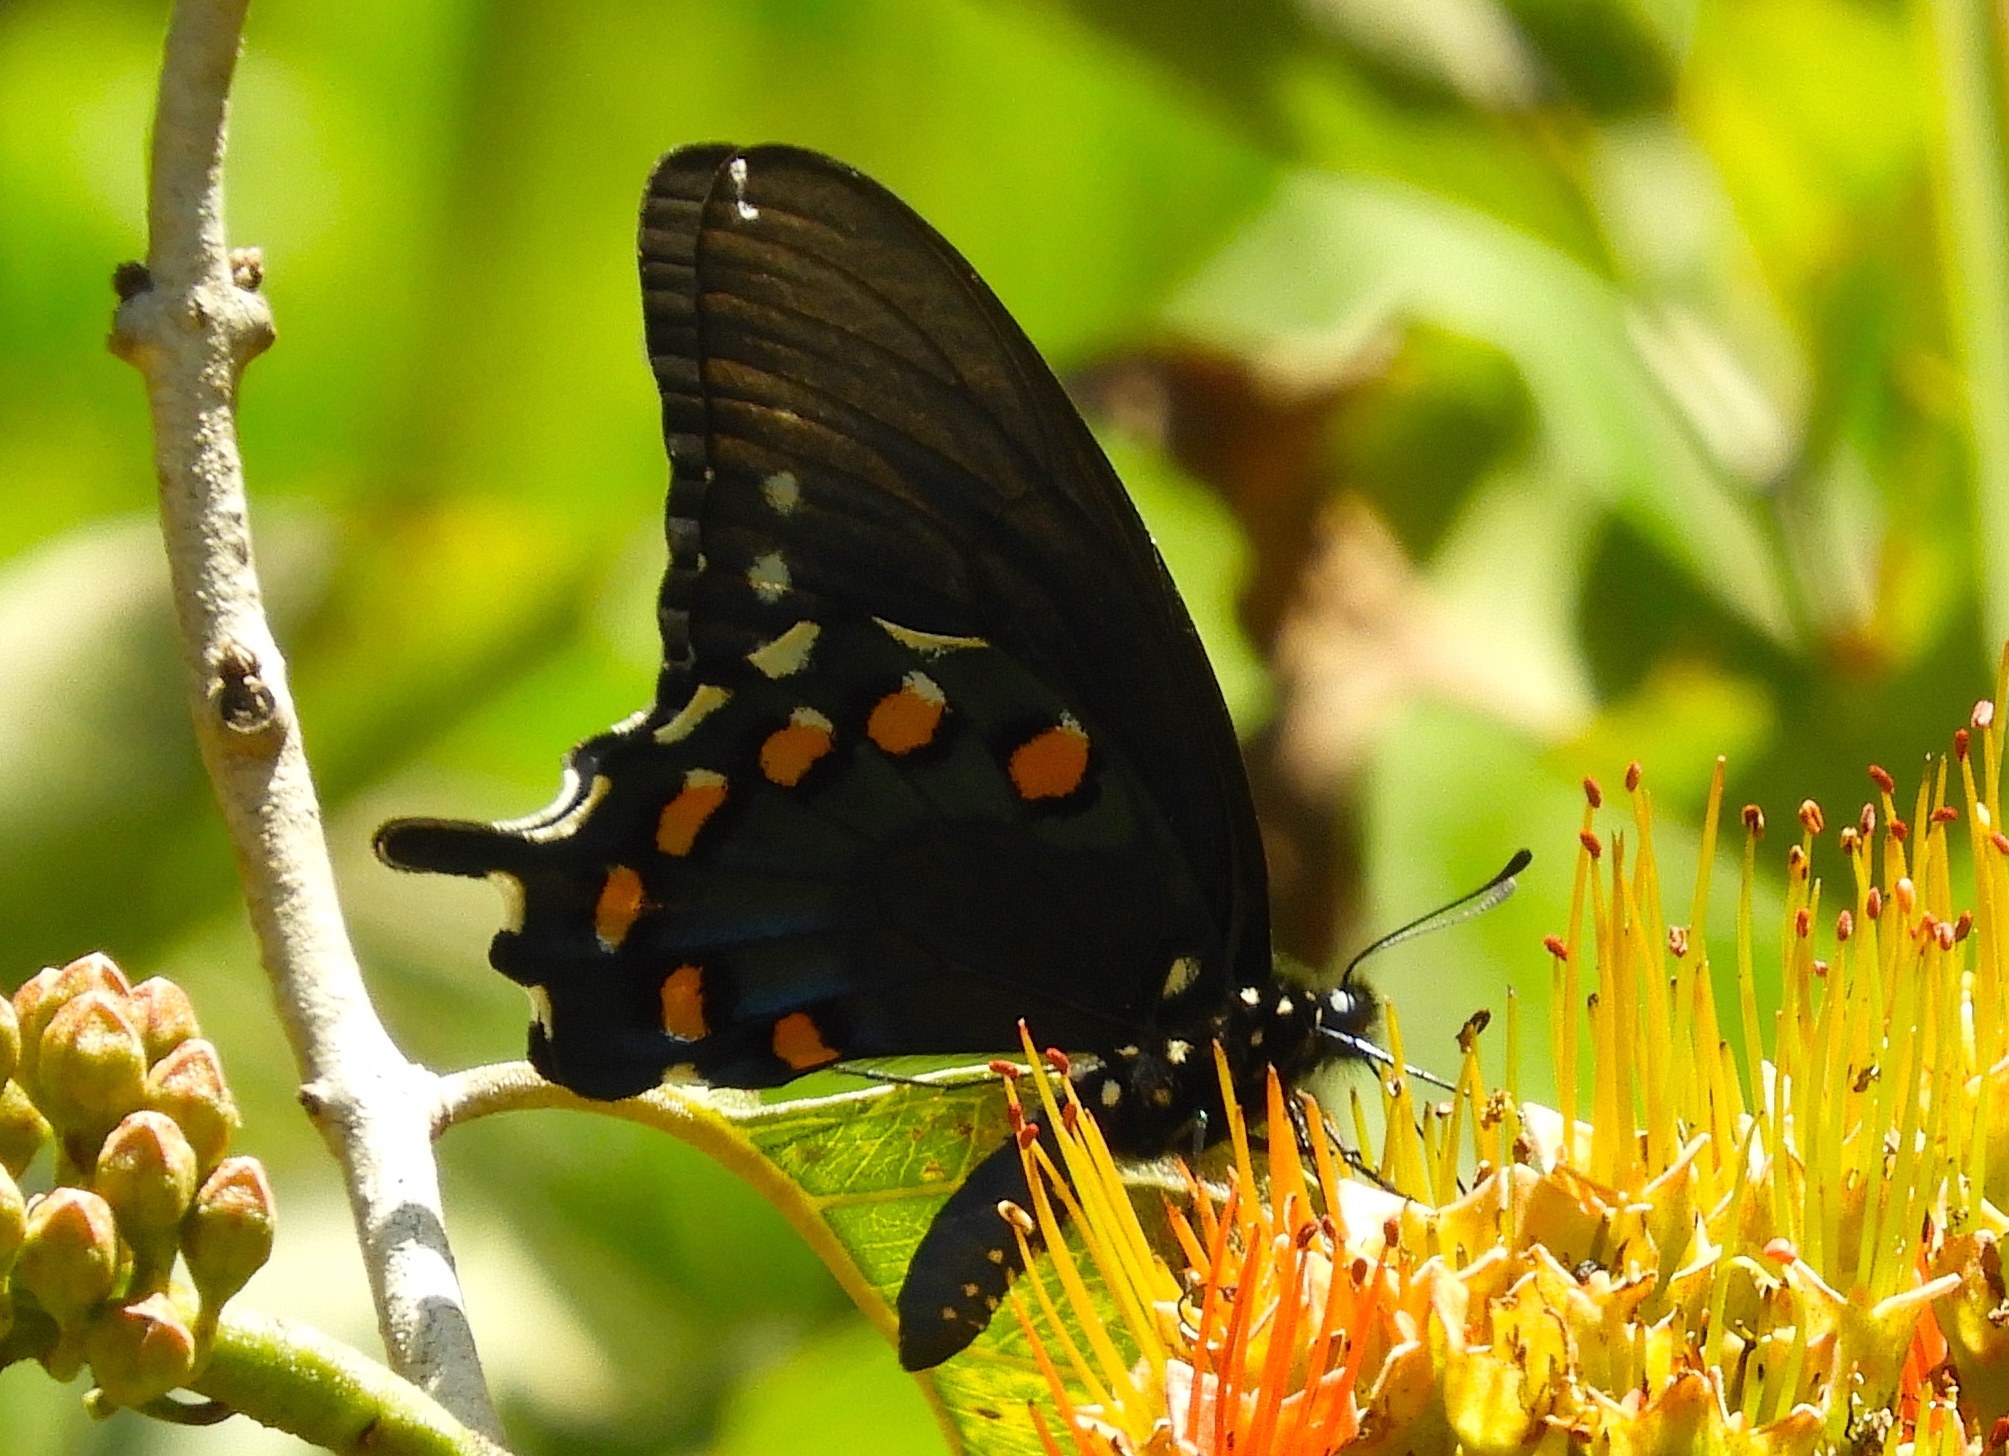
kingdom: Animalia
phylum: Arthropoda
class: Insecta
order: Lepidoptera
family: Papilionidae
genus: Battus
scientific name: Battus philenor
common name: Pipevine swallowtail
